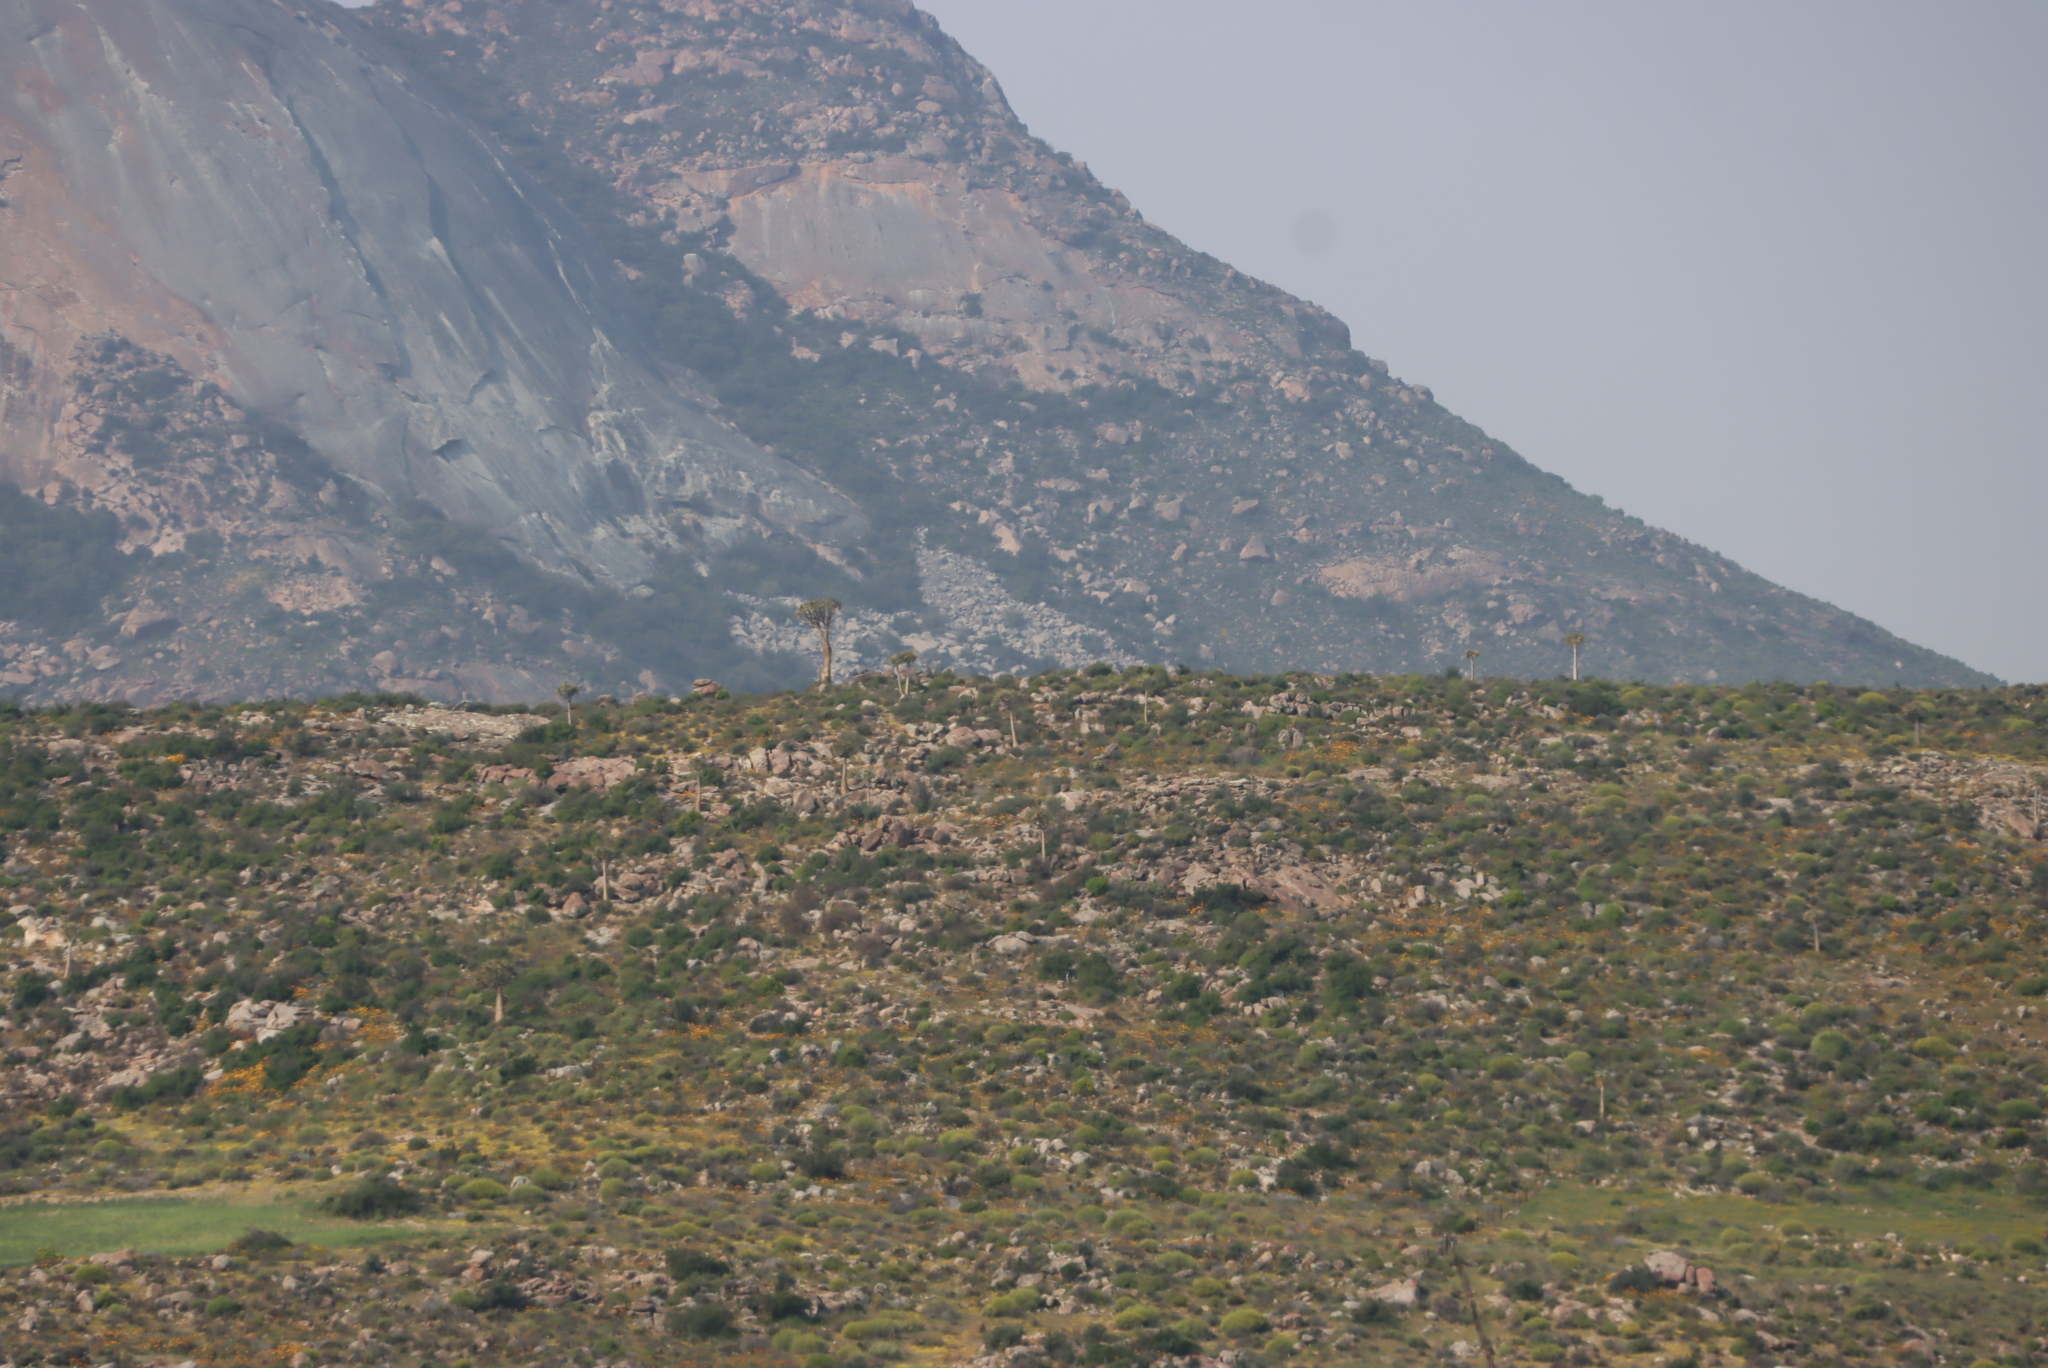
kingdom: Plantae
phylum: Tracheophyta
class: Liliopsida
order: Asparagales
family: Asphodelaceae
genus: Aloidendron
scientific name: Aloidendron dichotomum
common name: Quiver tree
